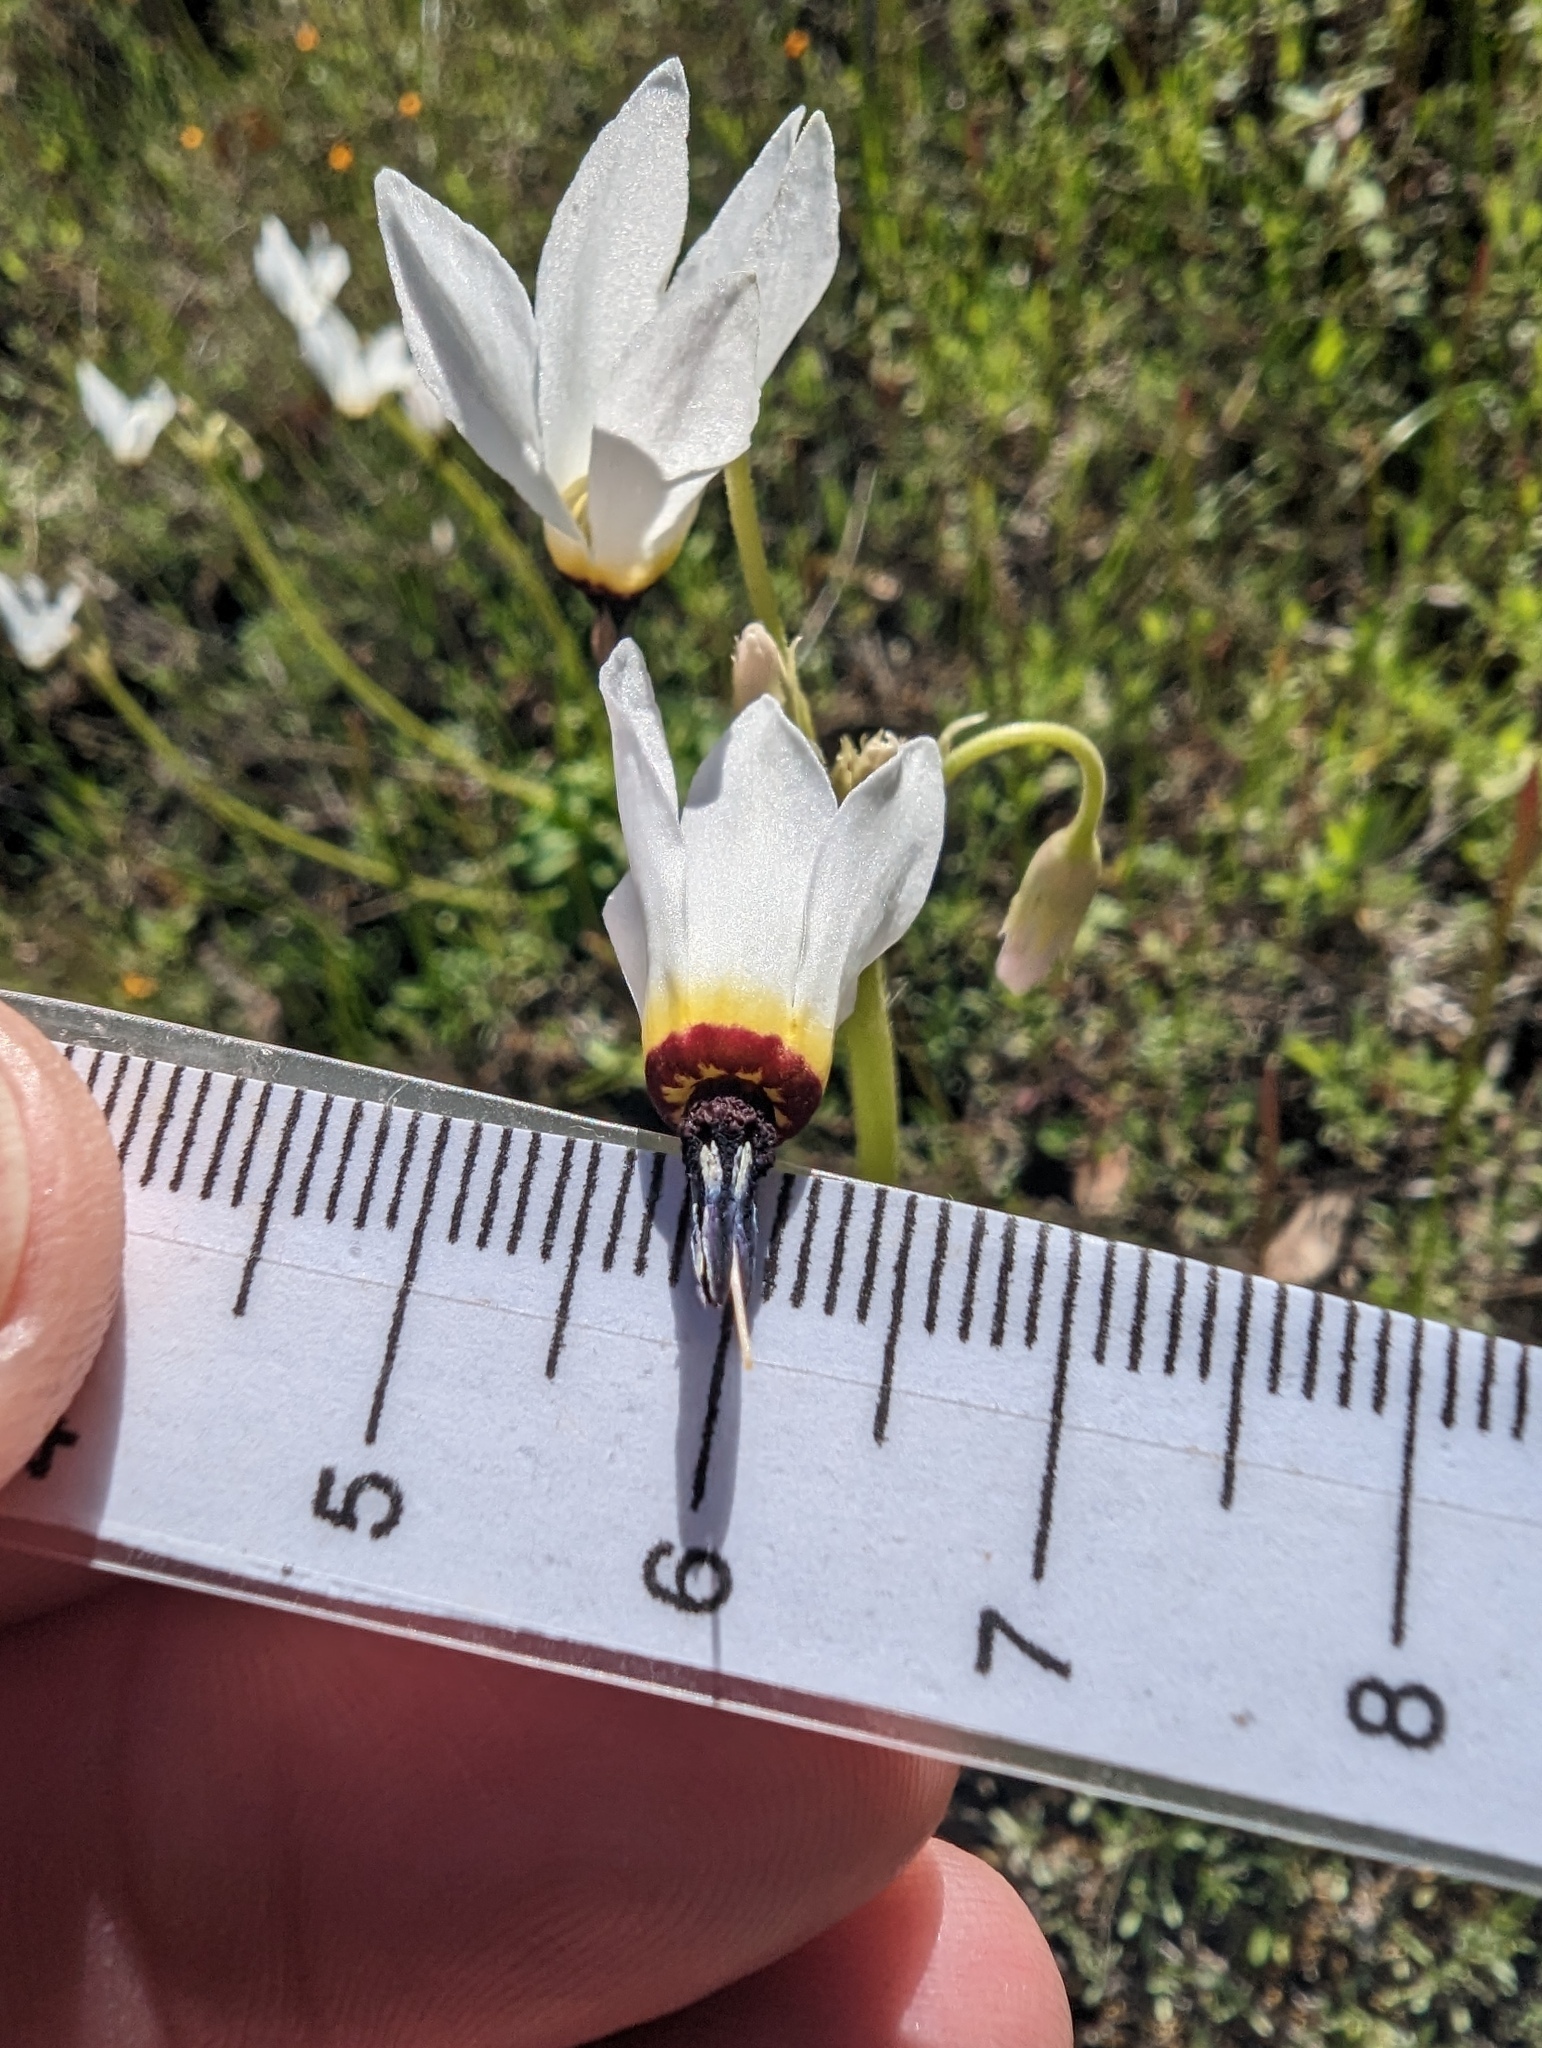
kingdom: Plantae
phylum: Tracheophyta
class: Magnoliopsida
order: Ericales
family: Primulaceae
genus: Dodecatheon
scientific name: Dodecatheon hendersonii
